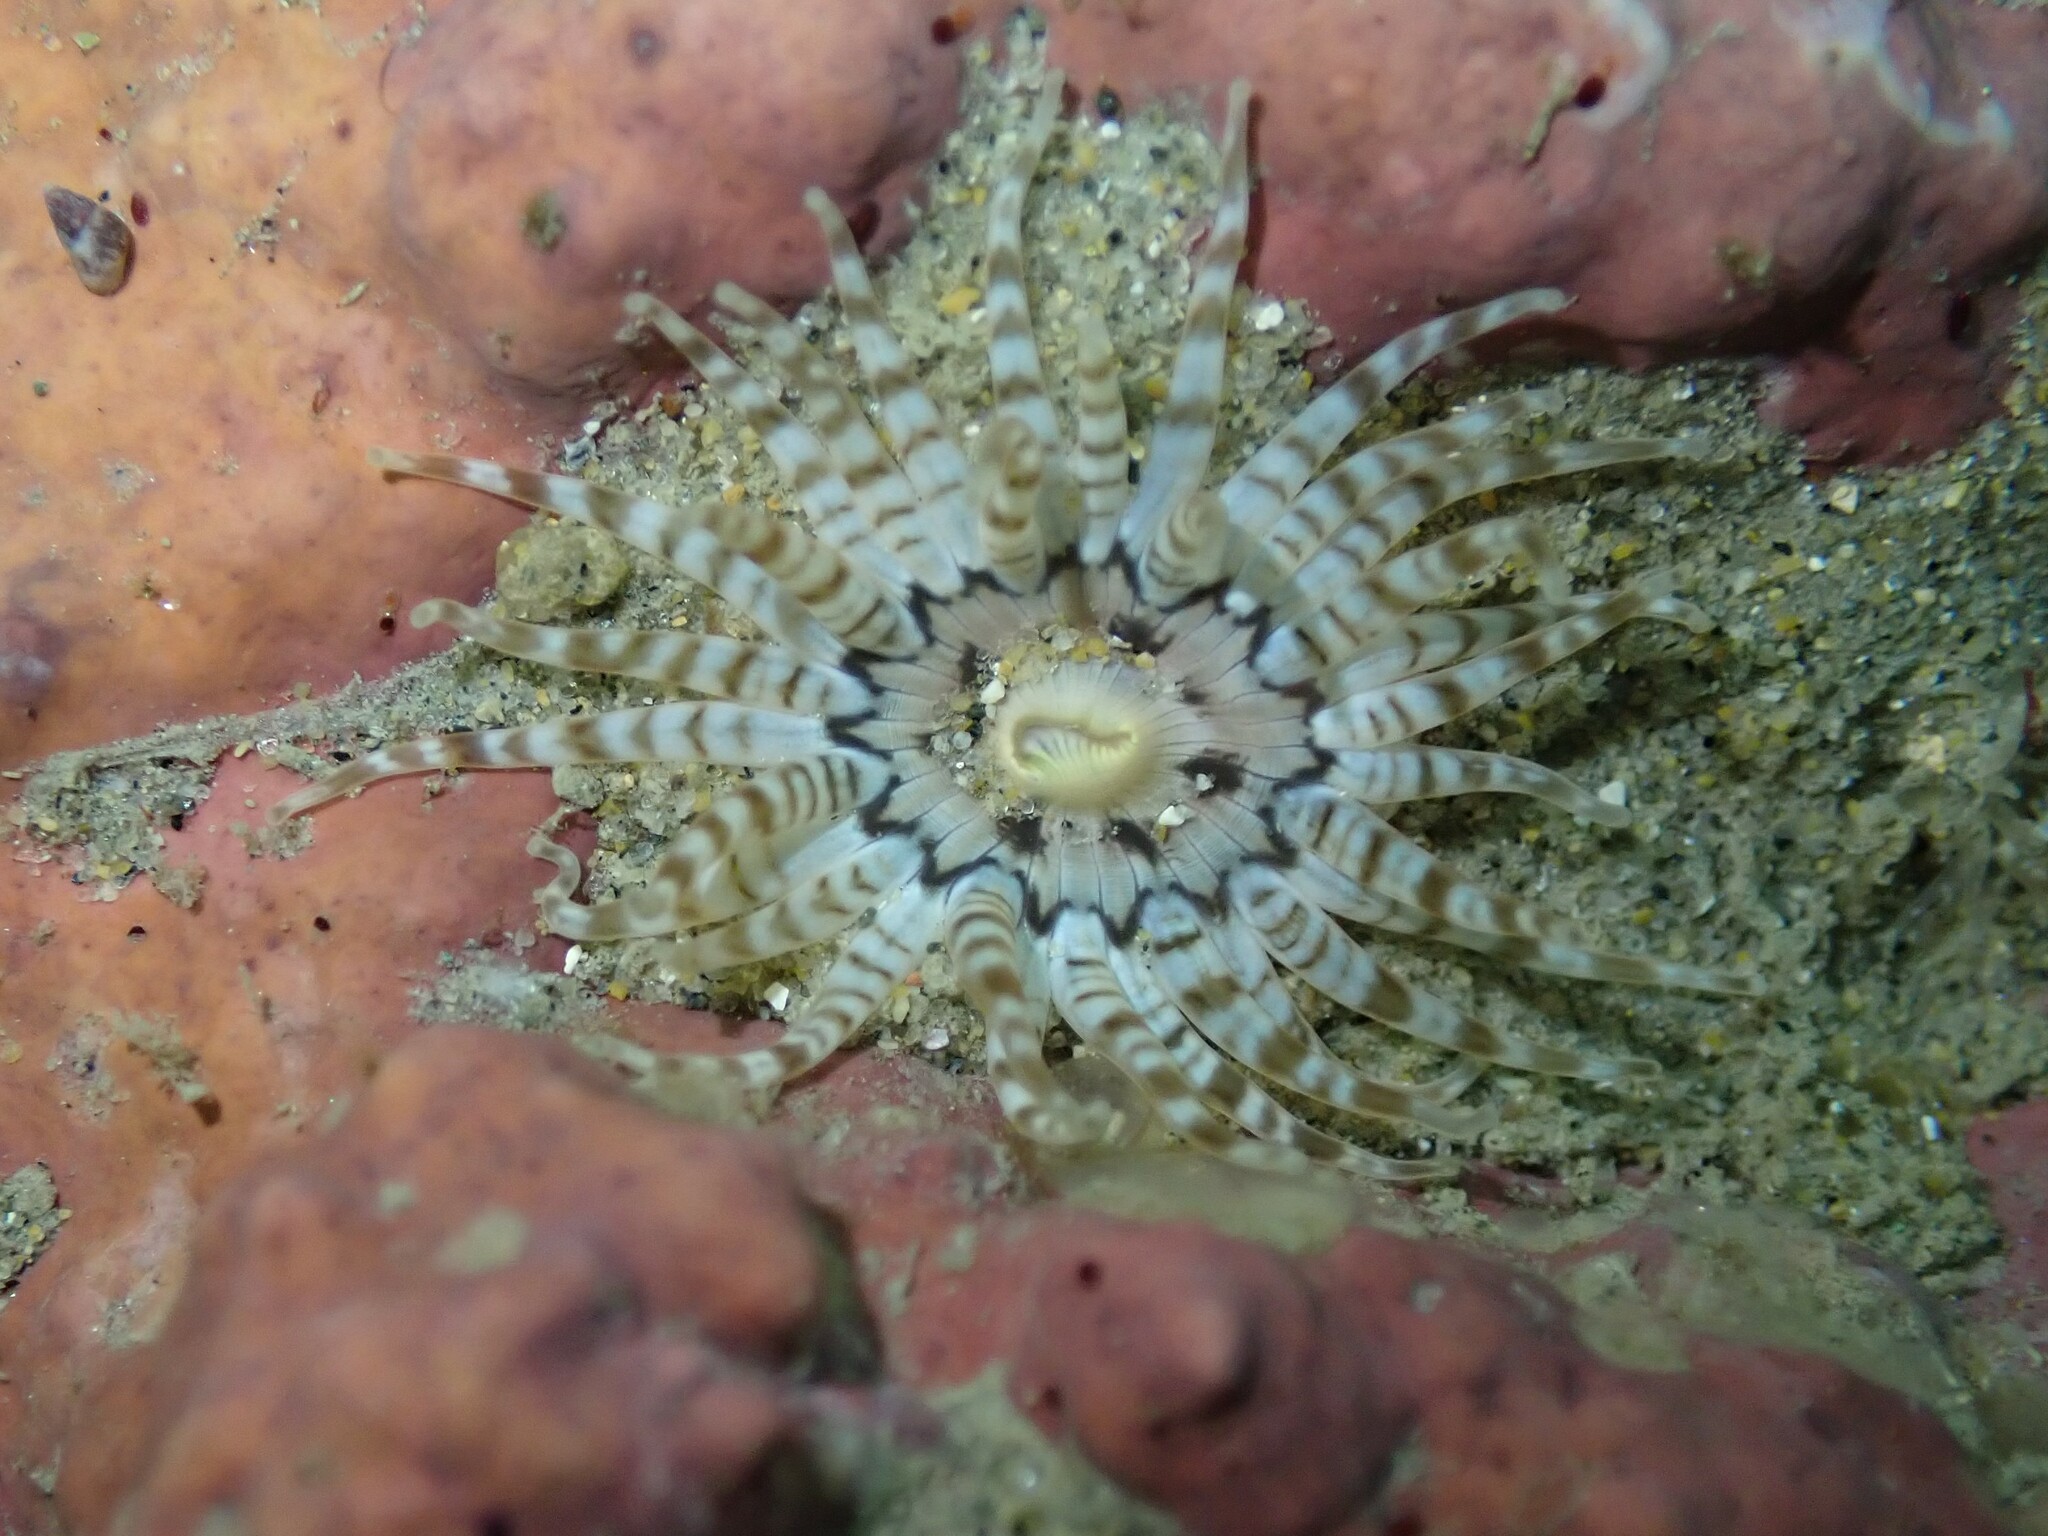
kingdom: Animalia
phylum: Cnidaria
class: Anthozoa
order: Actiniaria
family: Actiniidae
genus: Anthopleura
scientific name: Anthopleura rosea
